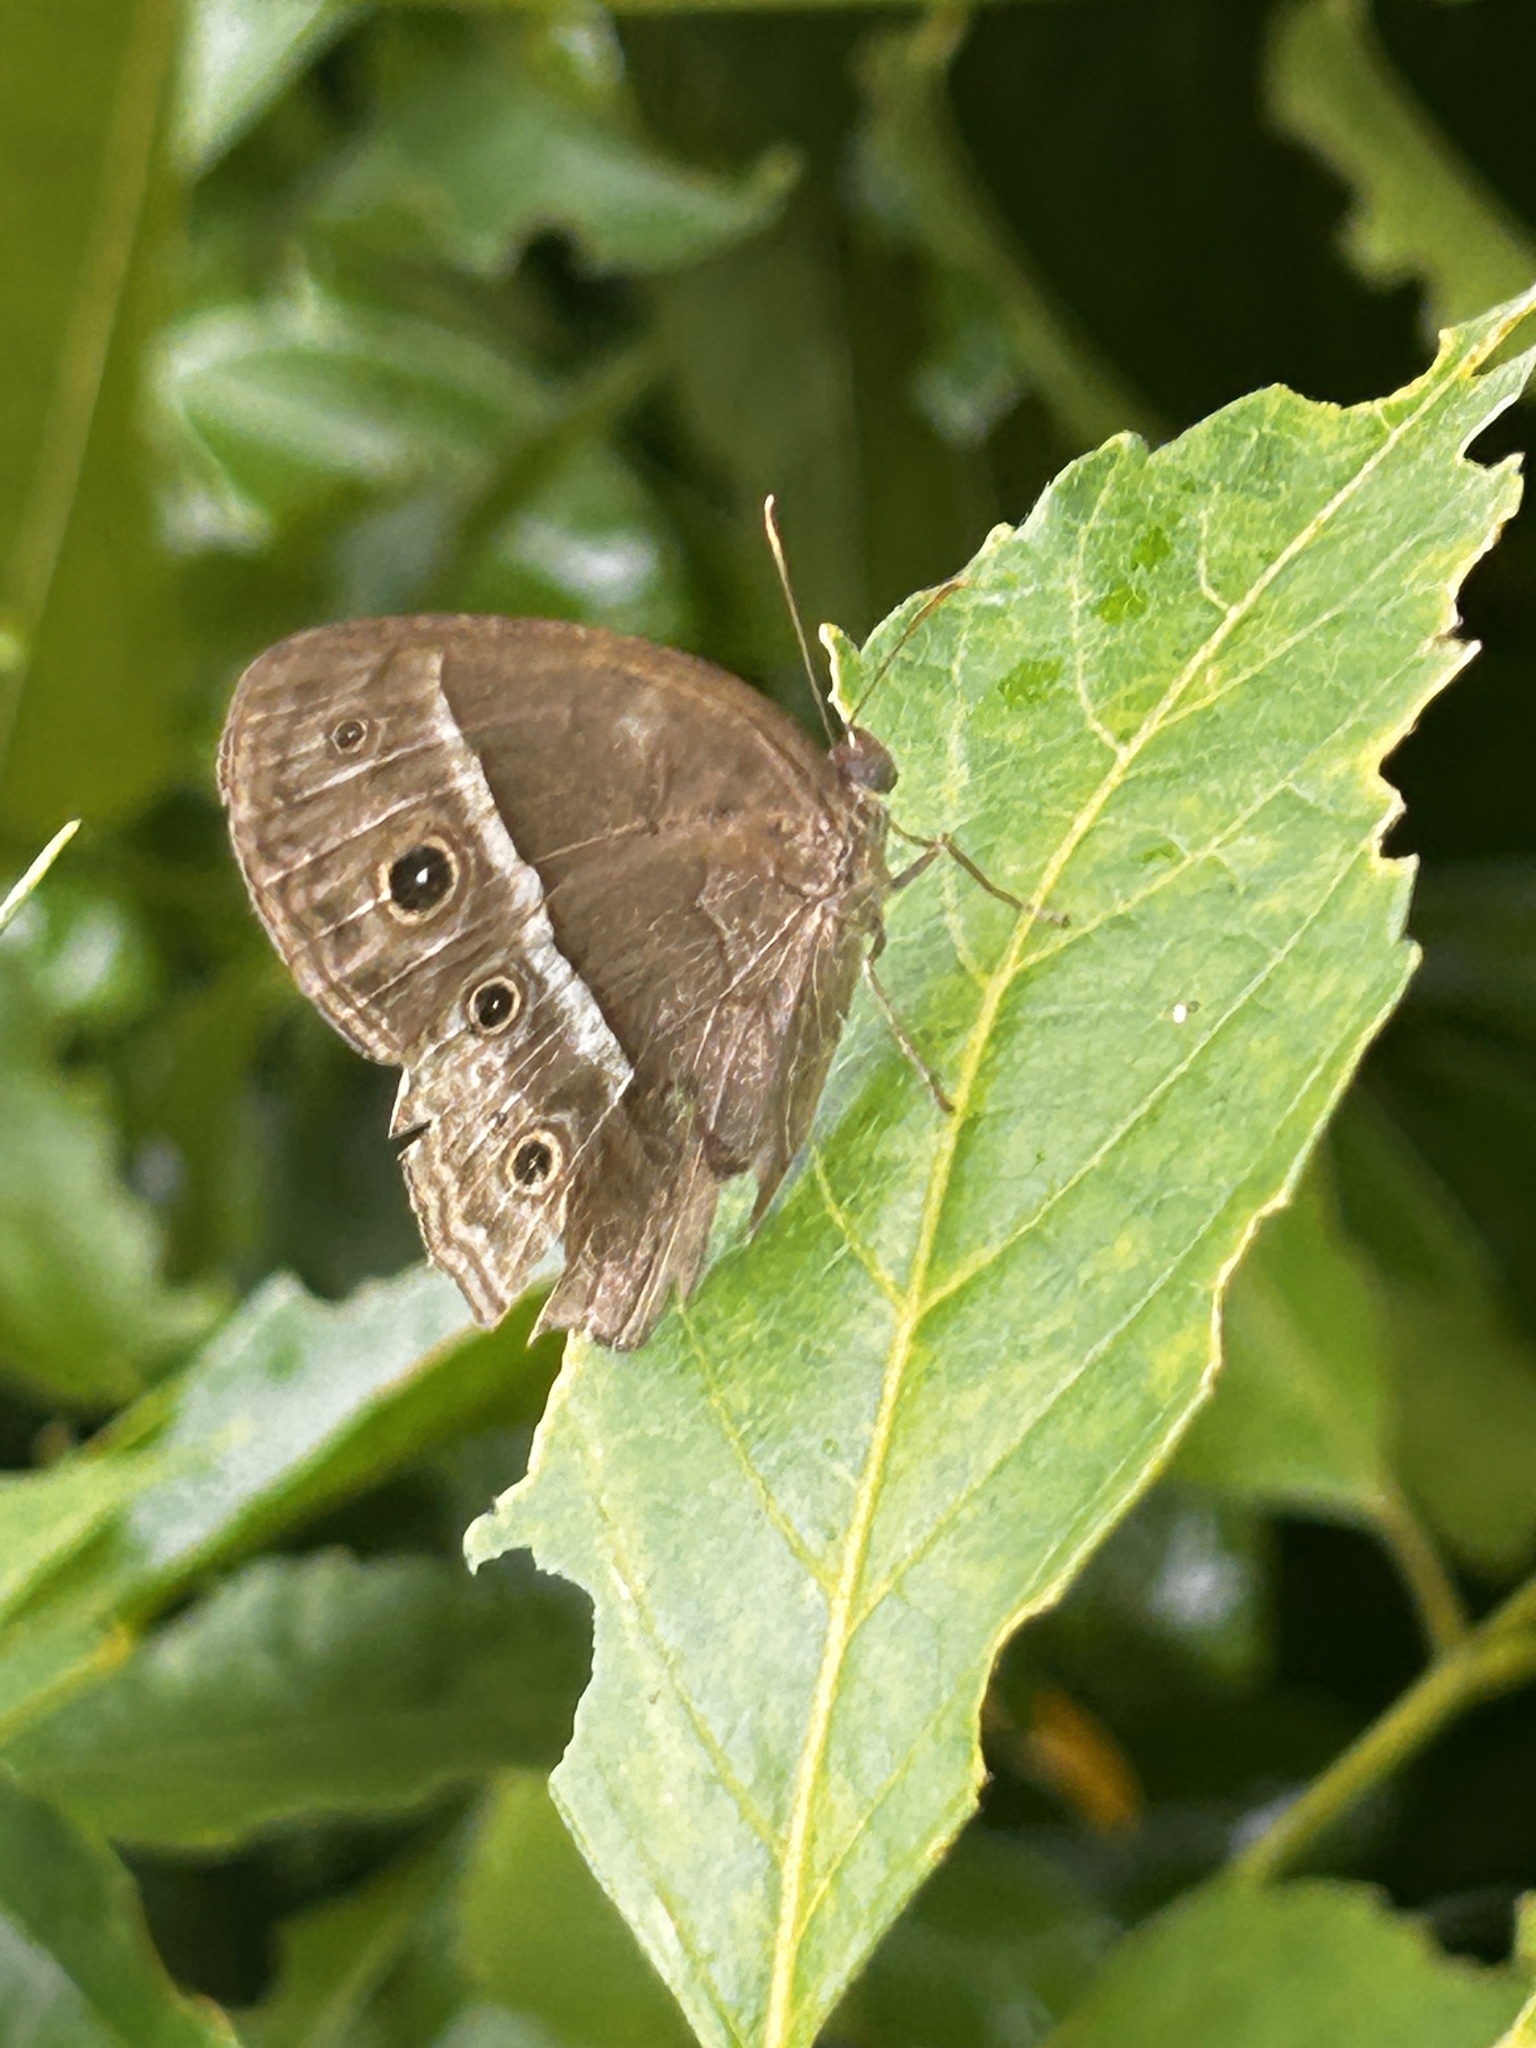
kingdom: Animalia
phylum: Arthropoda
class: Insecta
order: Lepidoptera
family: Nymphalidae
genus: Mycalesis
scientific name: Mycalesis mineus
